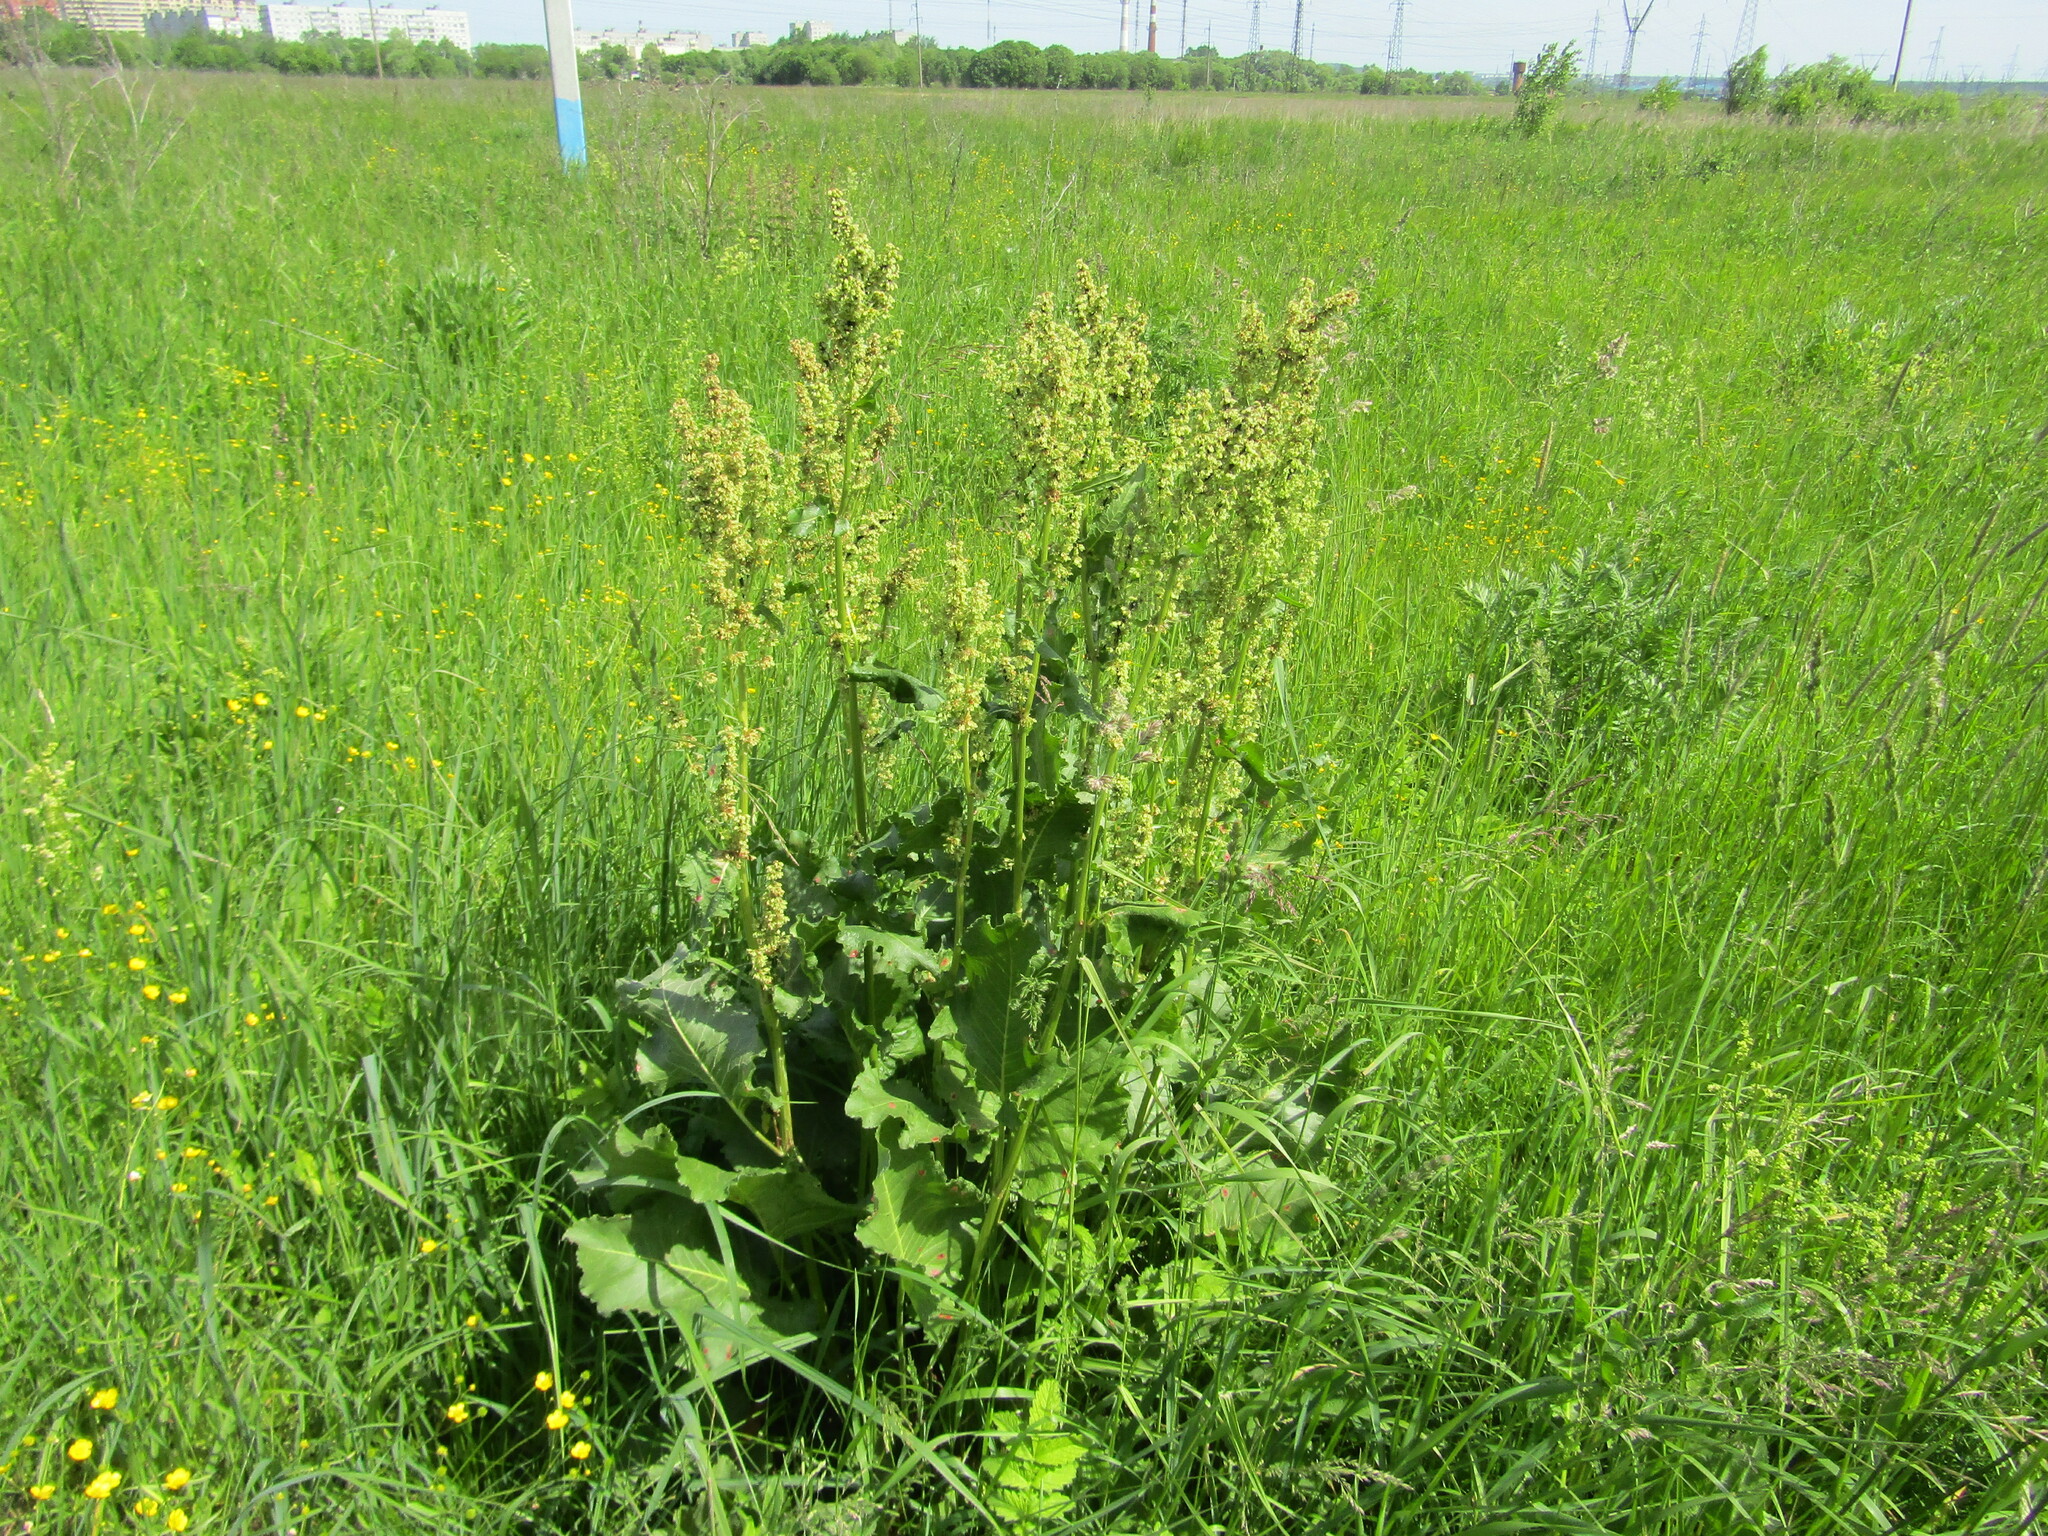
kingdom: Plantae
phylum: Tracheophyta
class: Magnoliopsida
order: Caryophyllales
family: Polygonaceae
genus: Rumex
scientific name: Rumex confertus
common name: Russian dock
